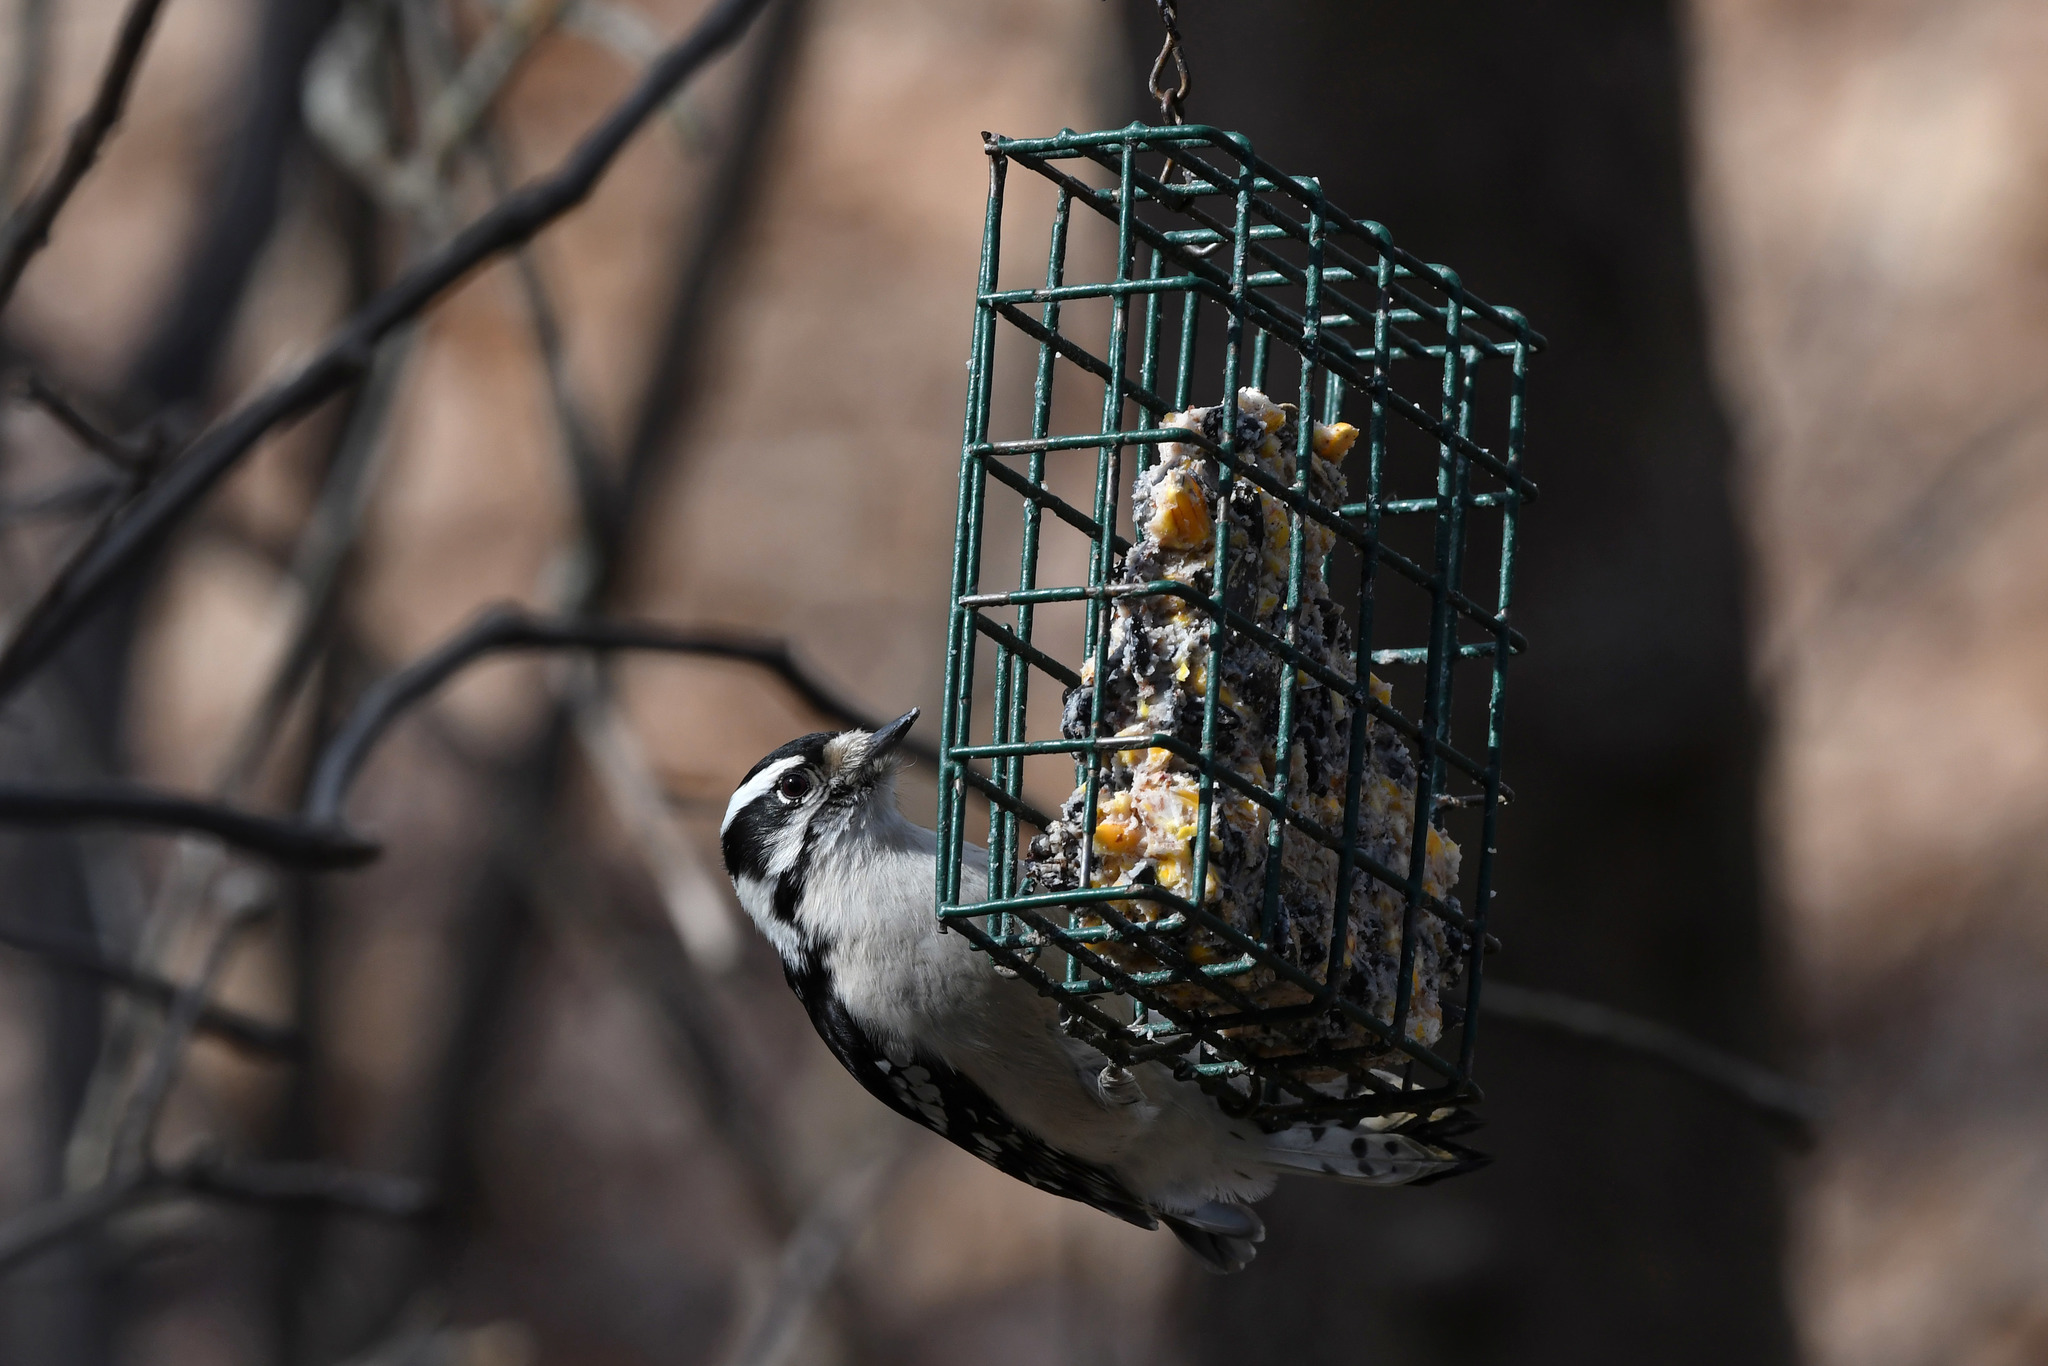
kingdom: Animalia
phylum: Chordata
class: Aves
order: Piciformes
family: Picidae
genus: Dryobates
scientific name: Dryobates pubescens
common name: Downy woodpecker
